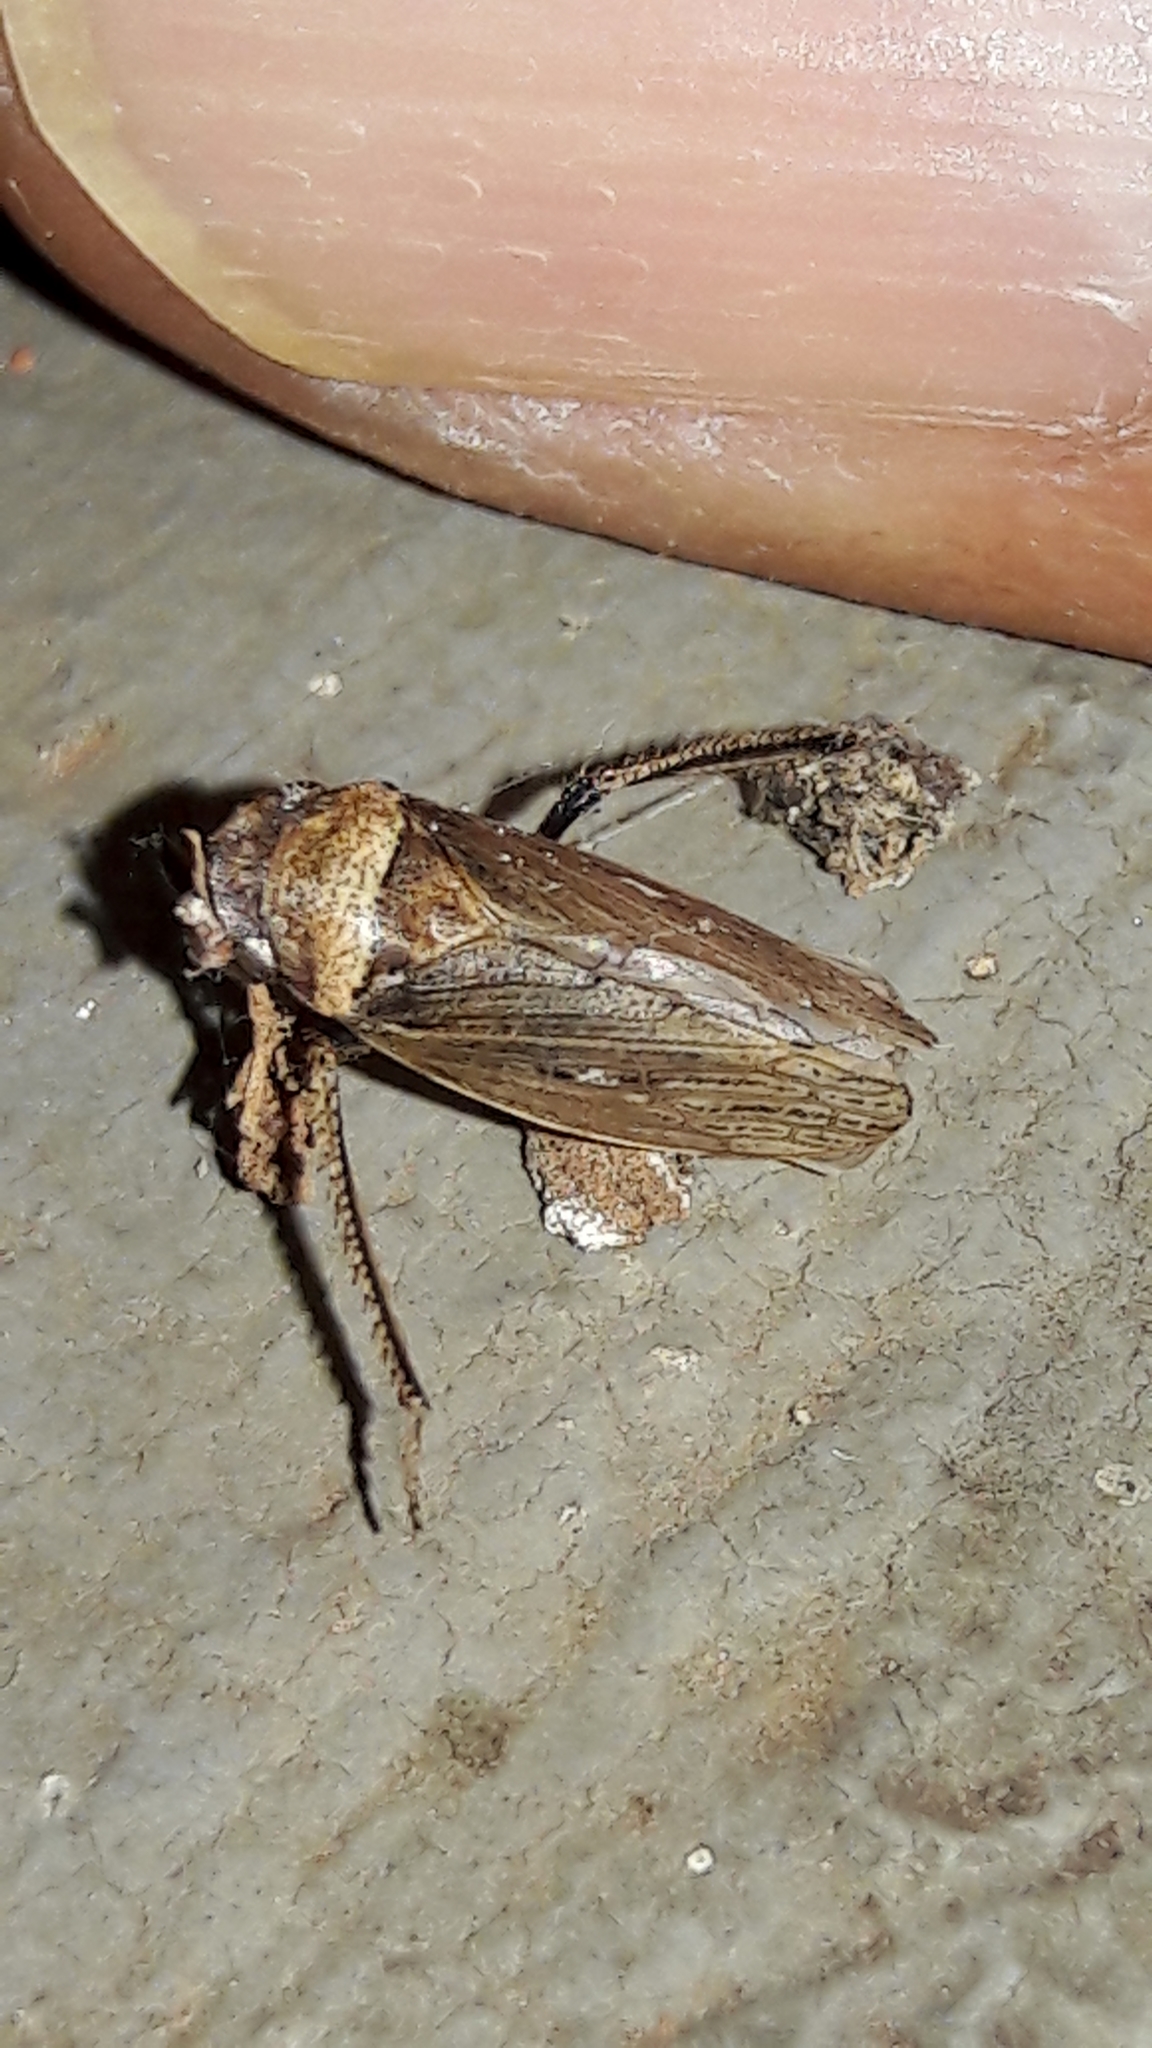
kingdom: Animalia
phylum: Arthropoda
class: Insecta
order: Hemiptera
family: Cicadellidae
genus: Sordana
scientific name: Sordana sordida
